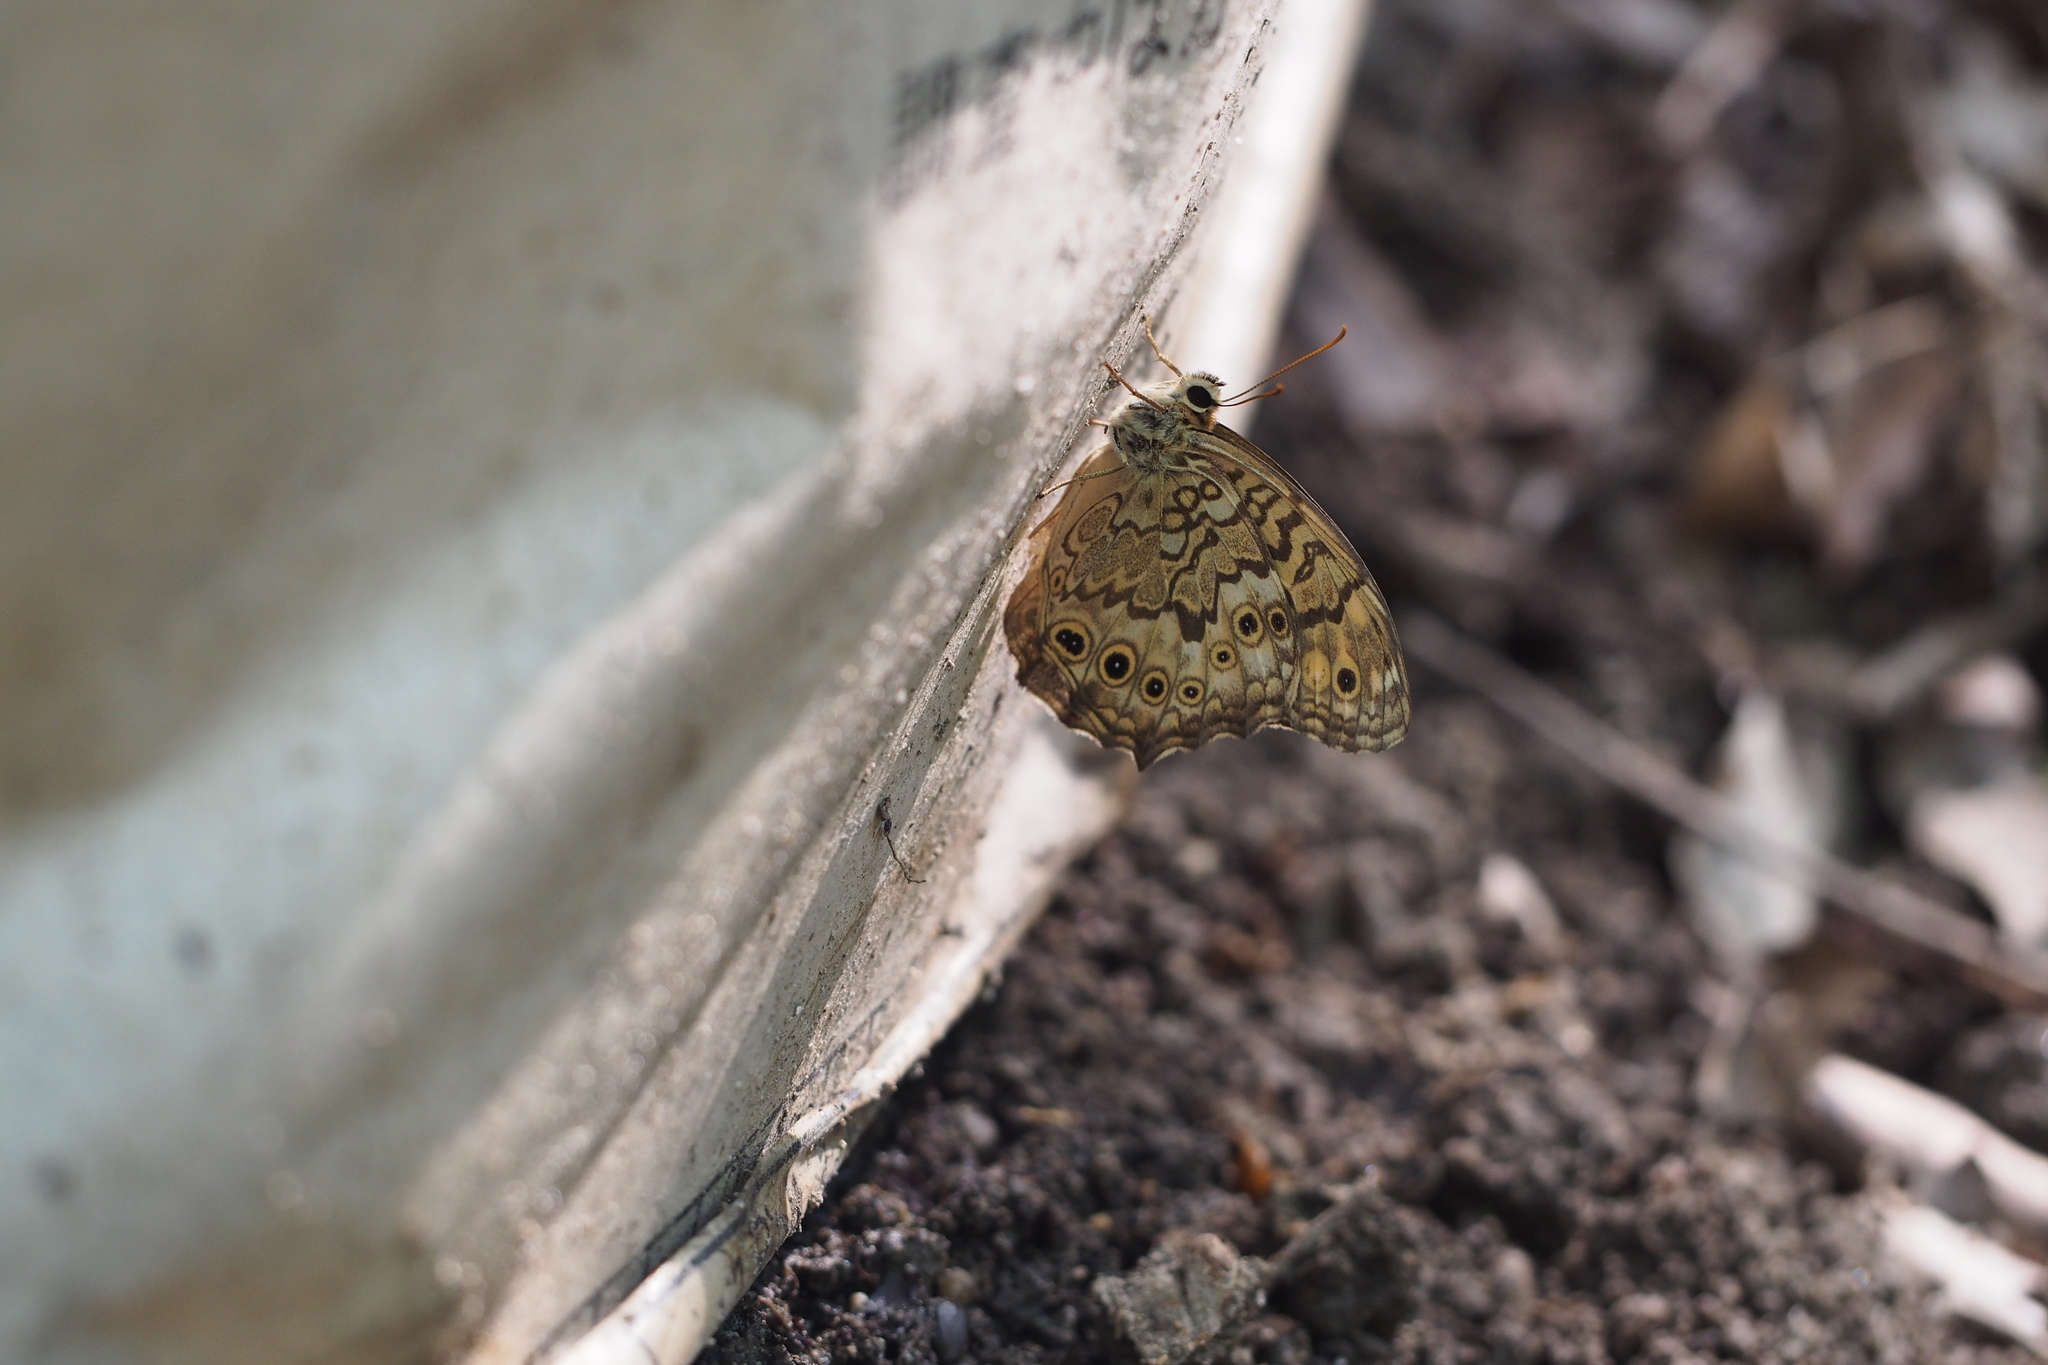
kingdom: Animalia
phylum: Arthropoda
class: Insecta
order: Lepidoptera
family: Nymphalidae
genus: Neope
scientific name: Neope goschkevitschii
